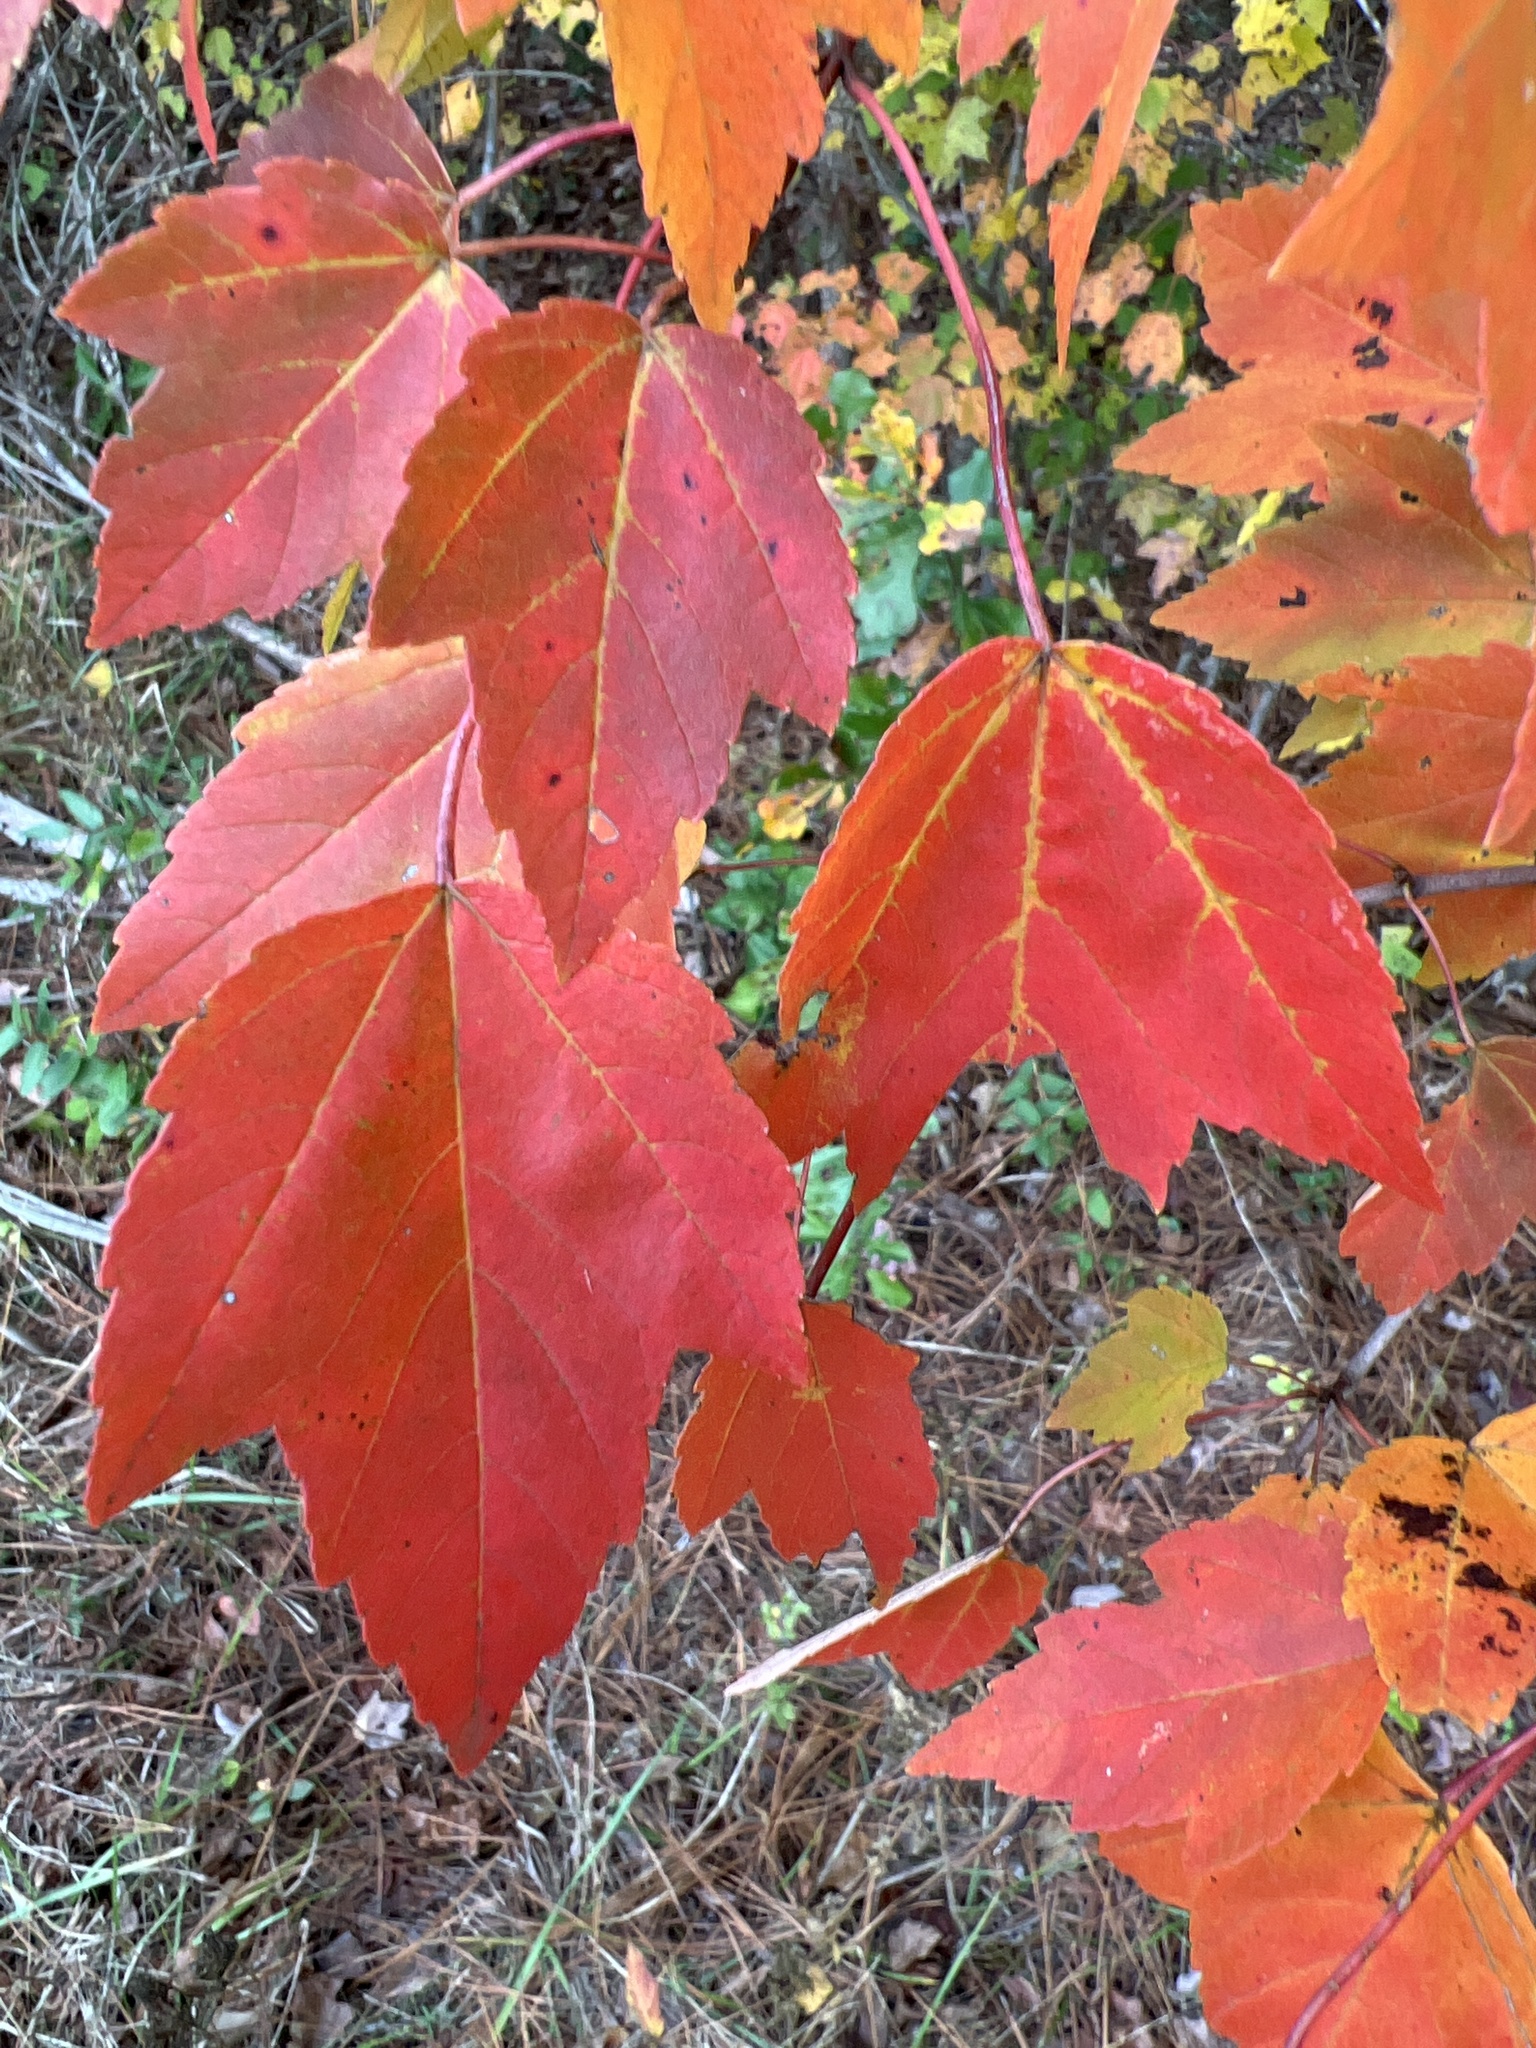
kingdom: Plantae
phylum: Tracheophyta
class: Magnoliopsida
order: Sapindales
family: Sapindaceae
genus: Acer
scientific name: Acer rubrum
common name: Red maple
